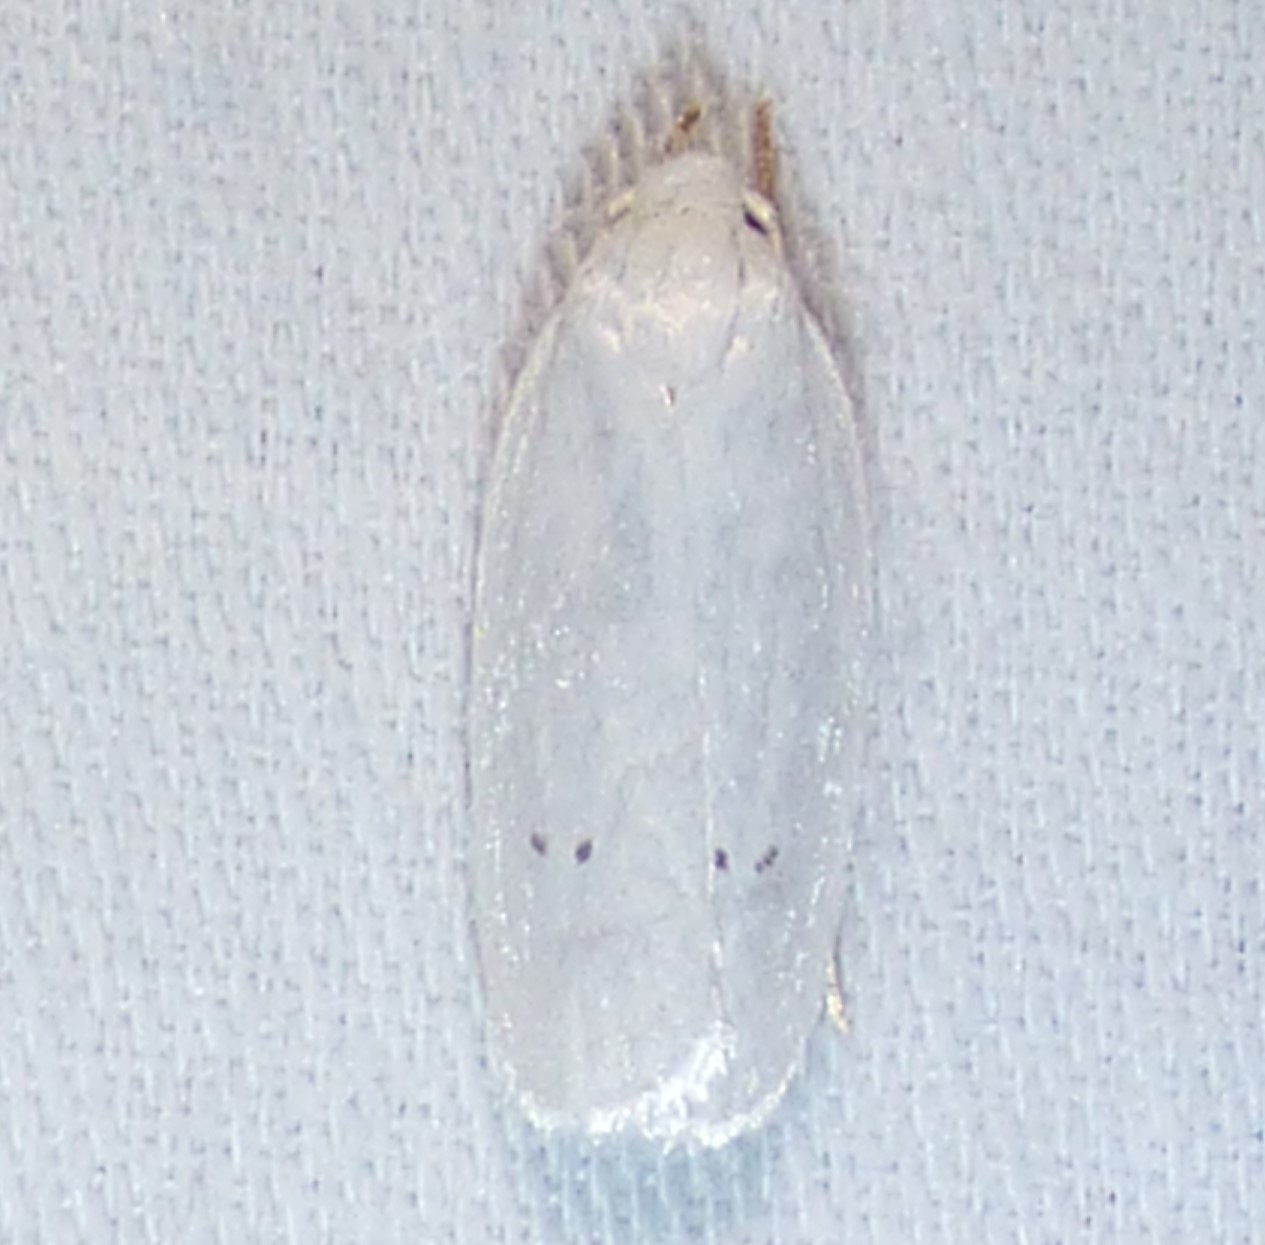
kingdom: Animalia
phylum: Arthropoda
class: Insecta
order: Lepidoptera
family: Depressariidae
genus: Antaeotricha
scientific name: Antaeotricha albulella
